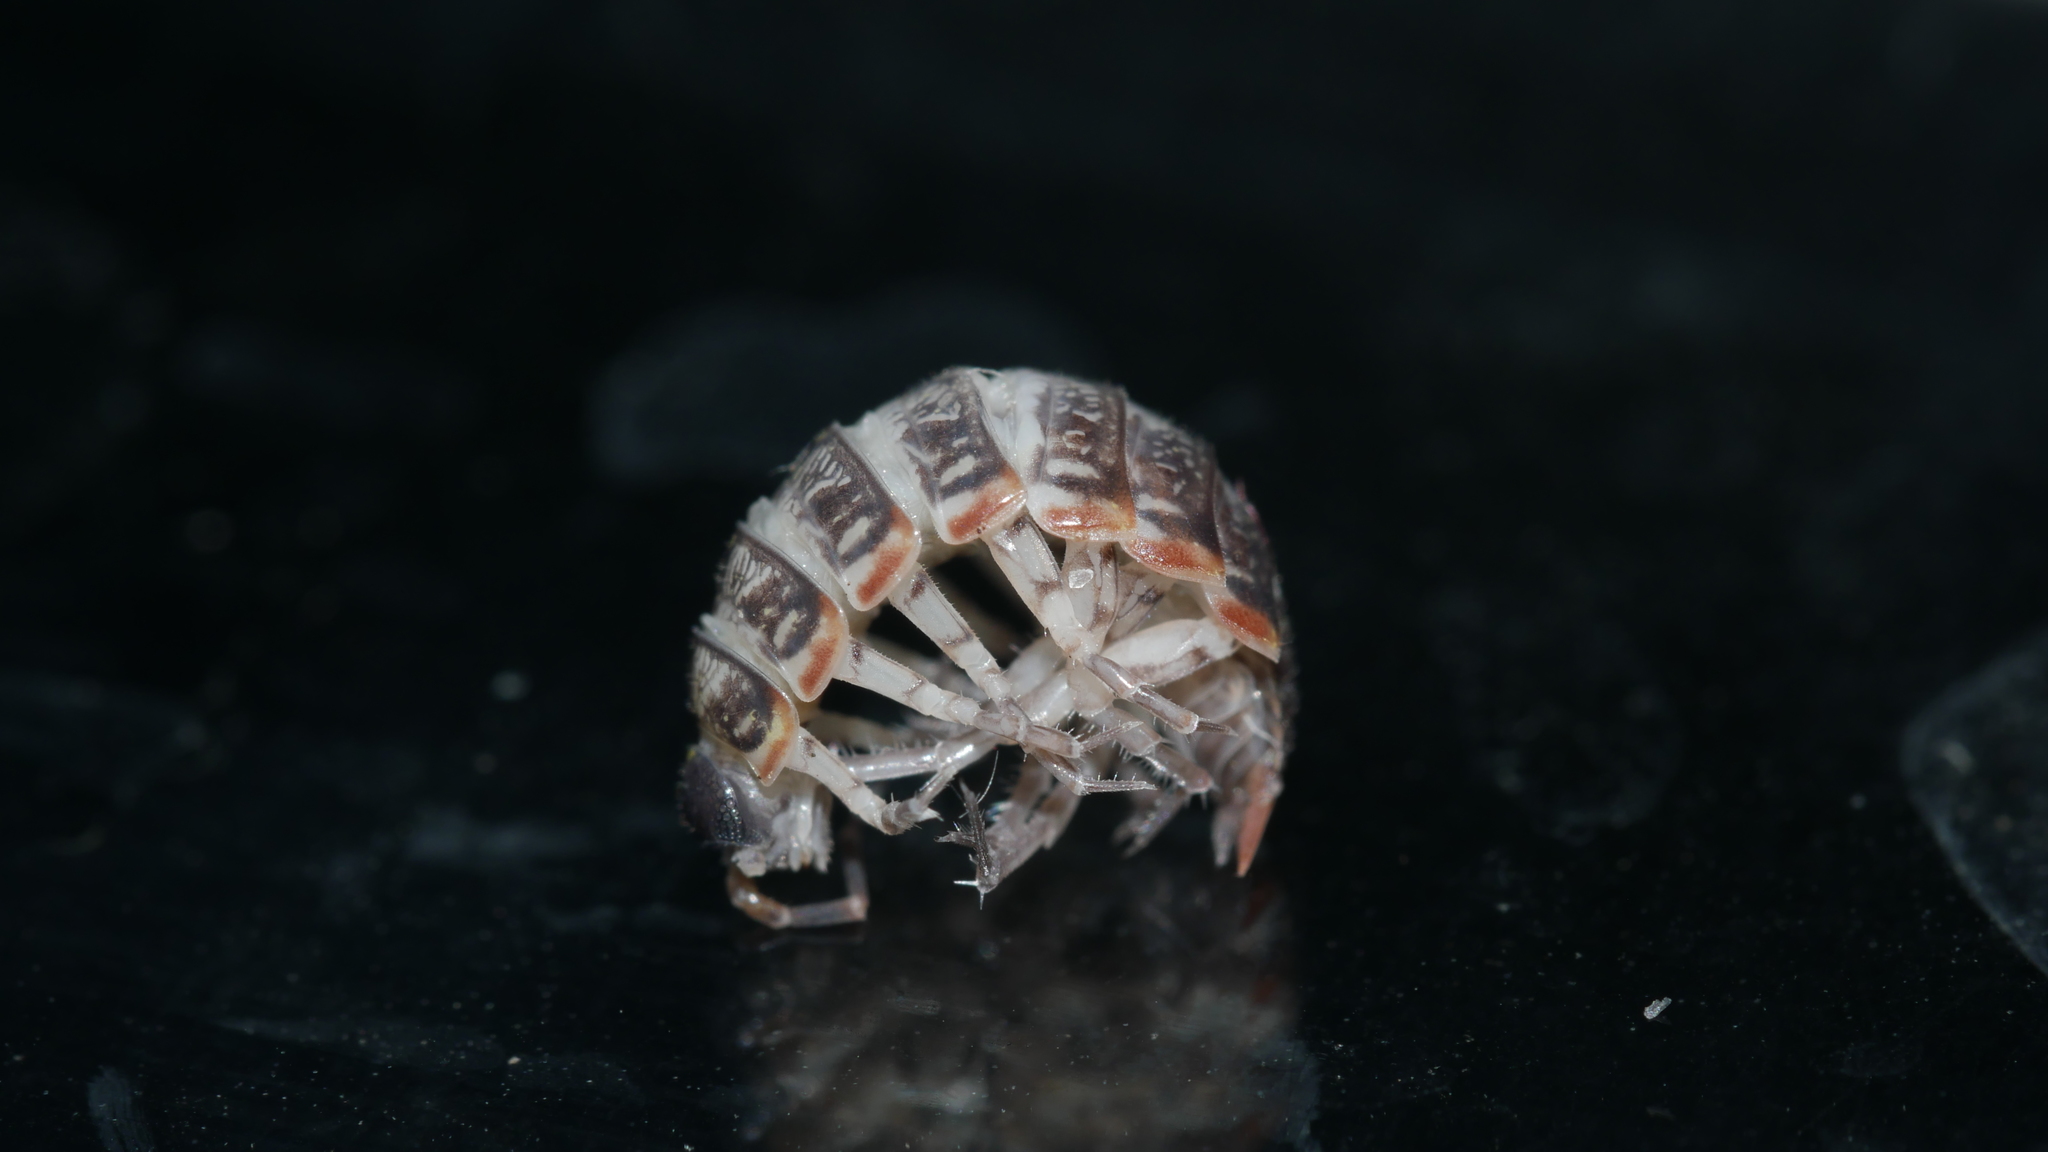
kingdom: Animalia
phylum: Arthropoda
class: Malacostraca
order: Isopoda
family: Philosciidae
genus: Philoscia
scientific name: Philoscia muscorum
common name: Common striped woodlouse
